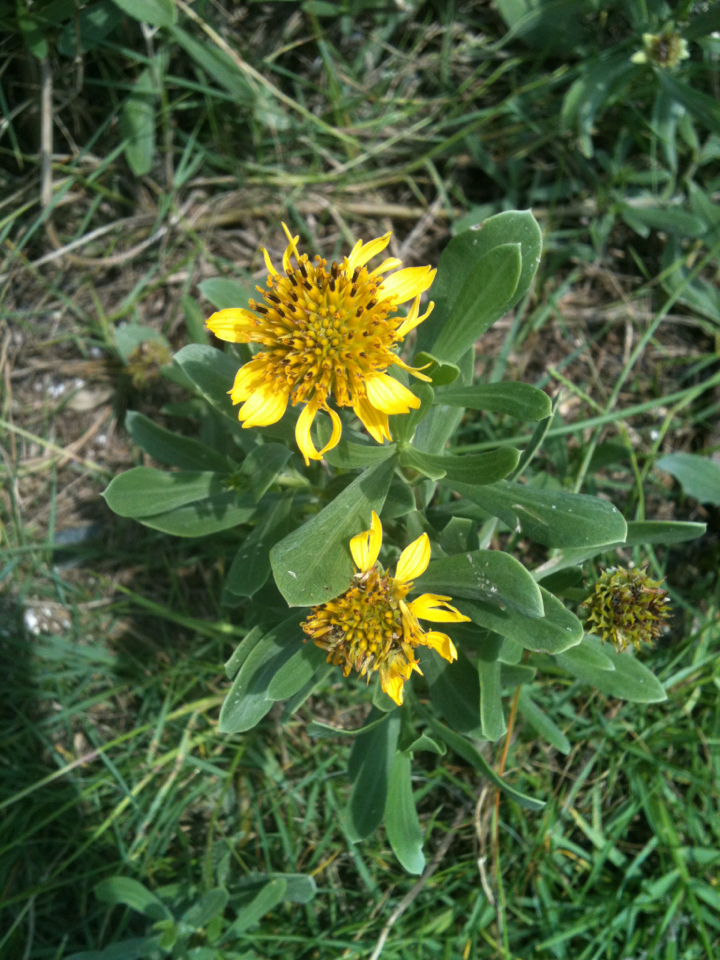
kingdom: Plantae
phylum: Tracheophyta
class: Magnoliopsida
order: Asterales
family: Asteraceae
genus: Borrichia
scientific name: Borrichia frutescens
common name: Sea oxeye
